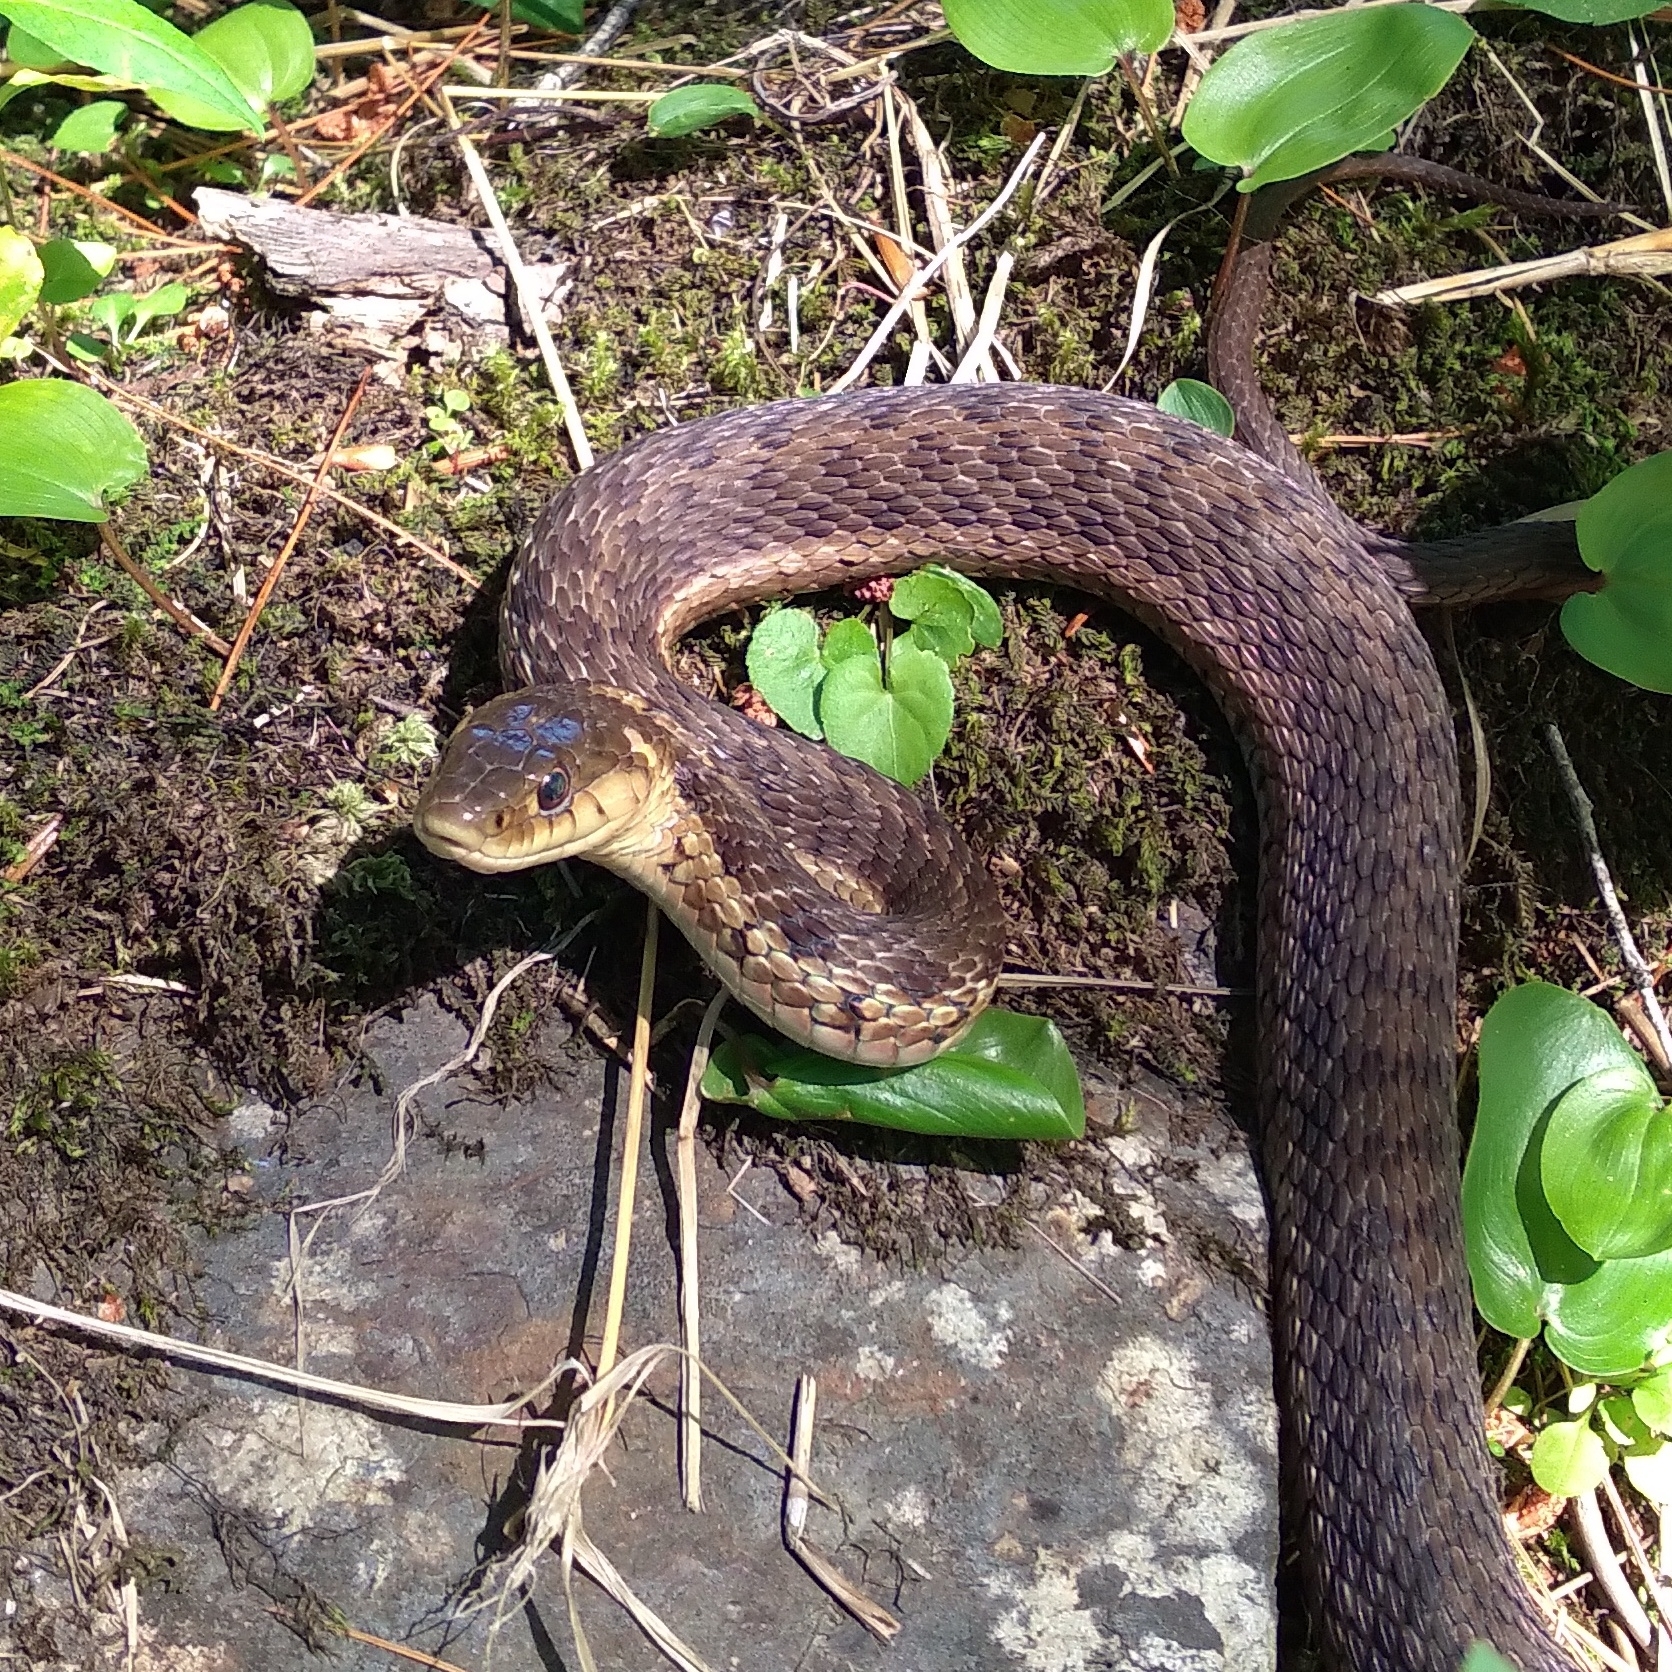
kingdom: Animalia
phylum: Chordata
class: Squamata
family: Colubridae
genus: Thamnophis
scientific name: Thamnophis sirtalis
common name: Common garter snake
